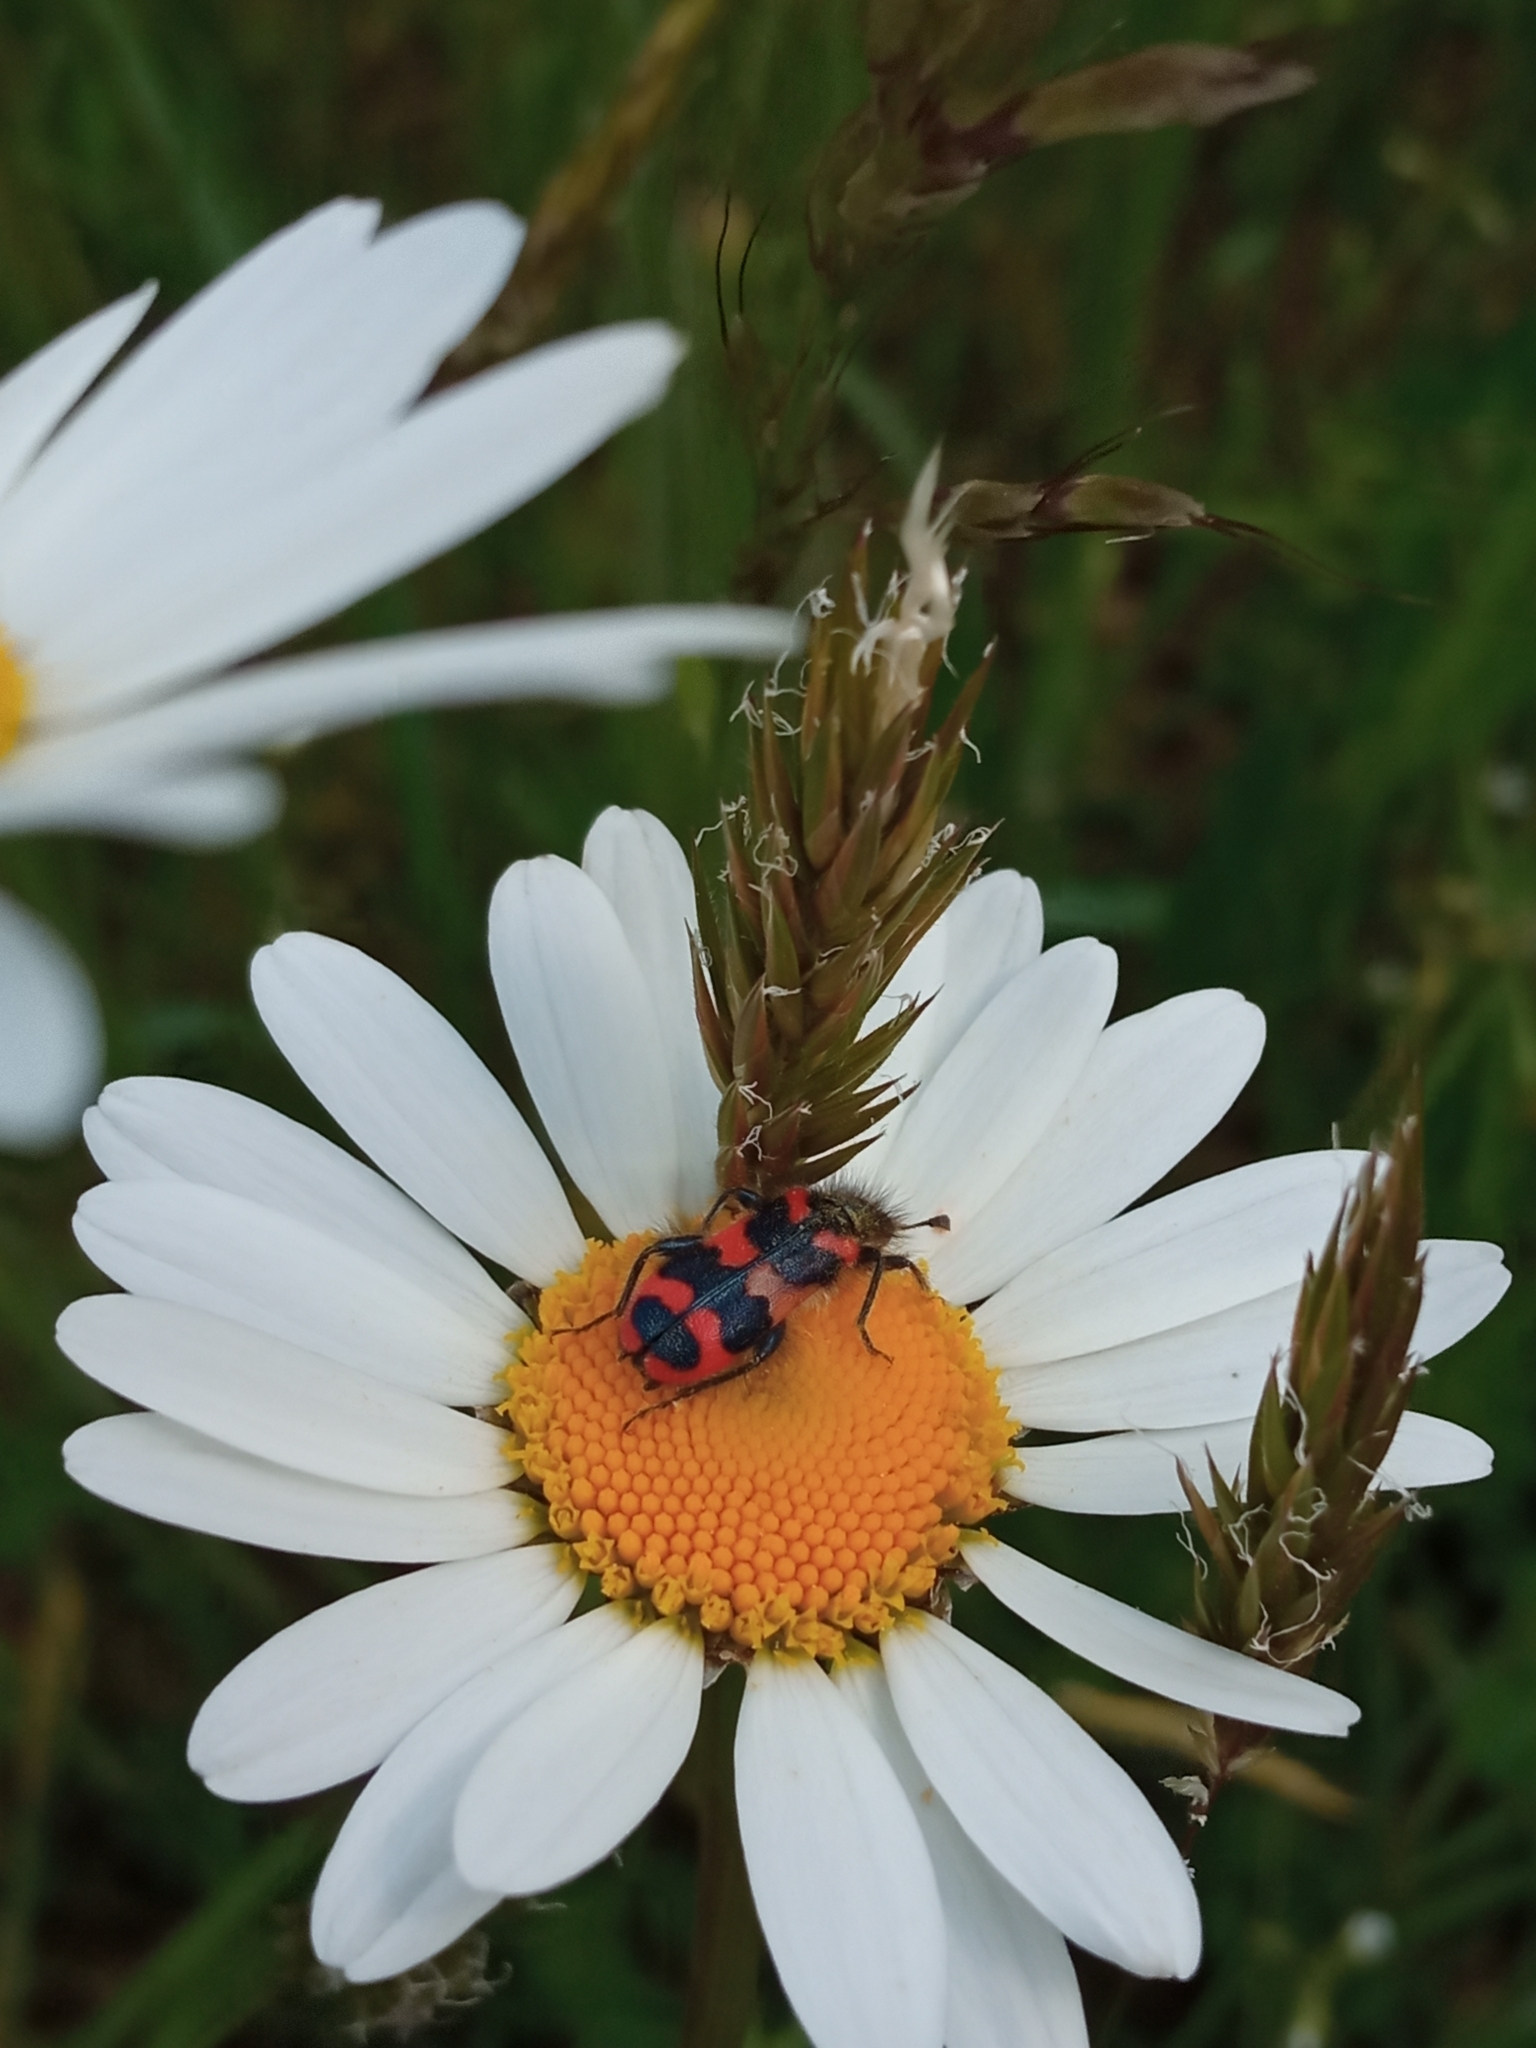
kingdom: Animalia
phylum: Arthropoda
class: Insecta
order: Coleoptera
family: Cleridae
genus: Trichodes
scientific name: Trichodes alvearius
